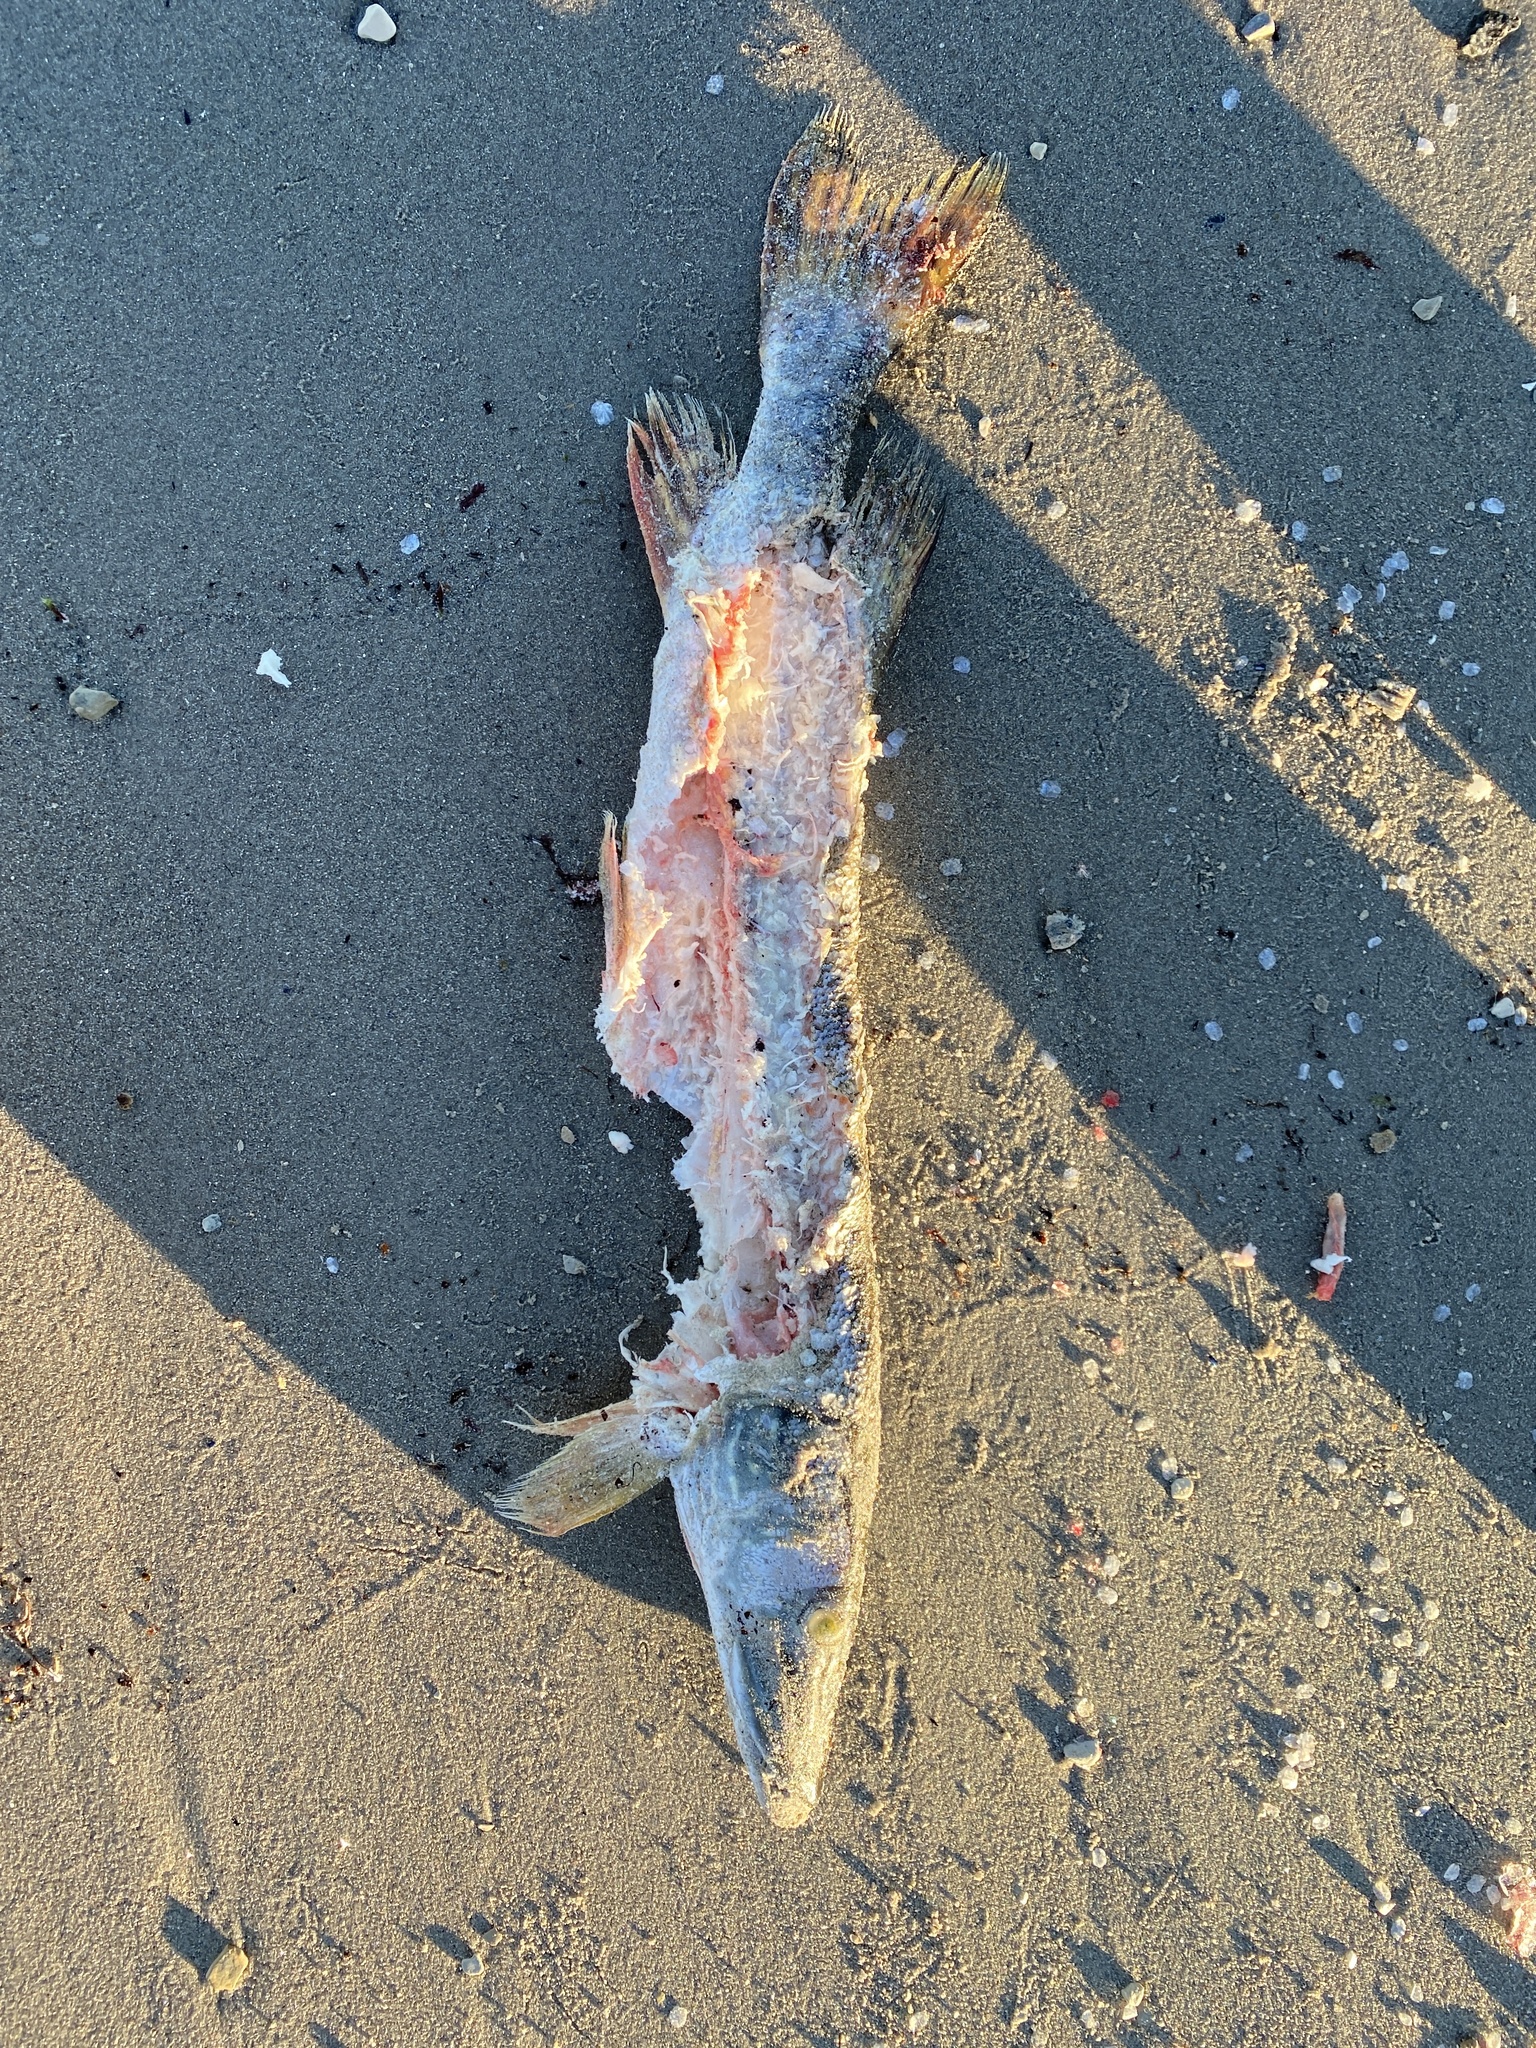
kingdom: Animalia
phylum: Chordata
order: Esociformes
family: Esocidae
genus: Esox
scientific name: Esox lucius
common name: Northern pike
